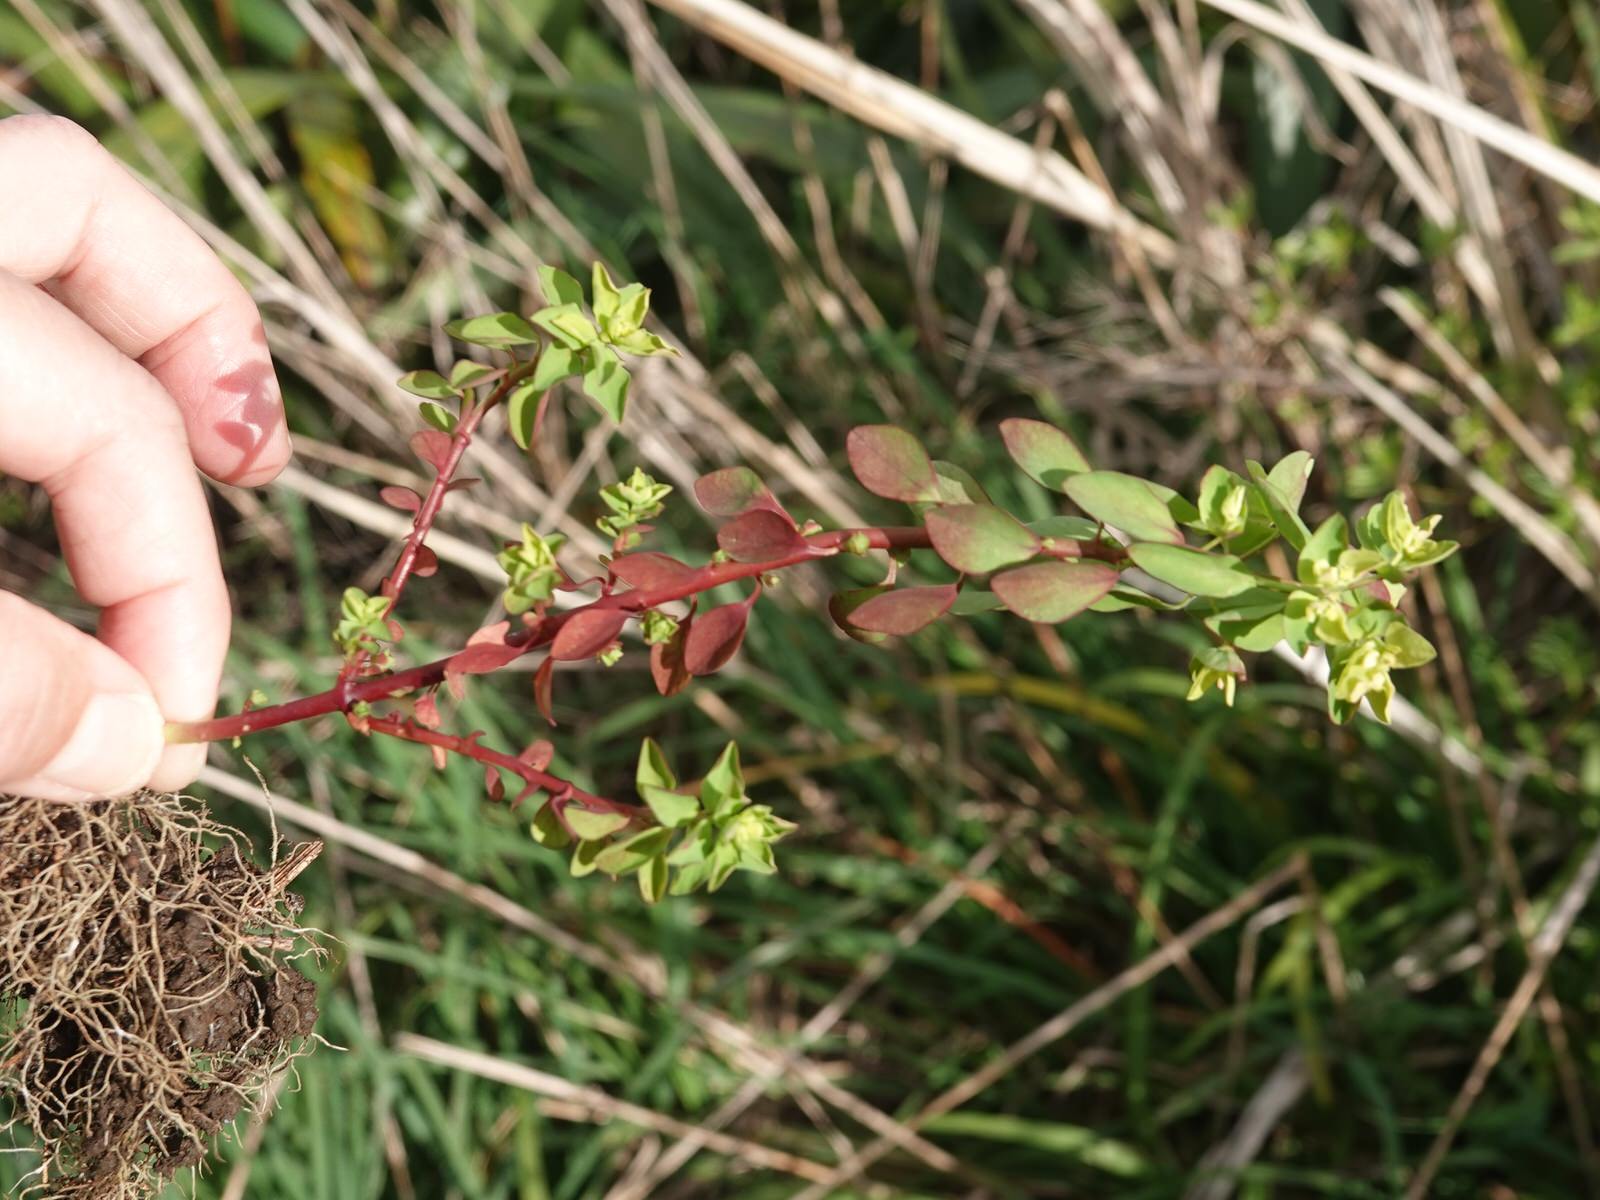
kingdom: Plantae
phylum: Tracheophyta
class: Magnoliopsida
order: Malpighiales
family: Euphorbiaceae
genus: Euphorbia
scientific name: Euphorbia peplus
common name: Petty spurge
